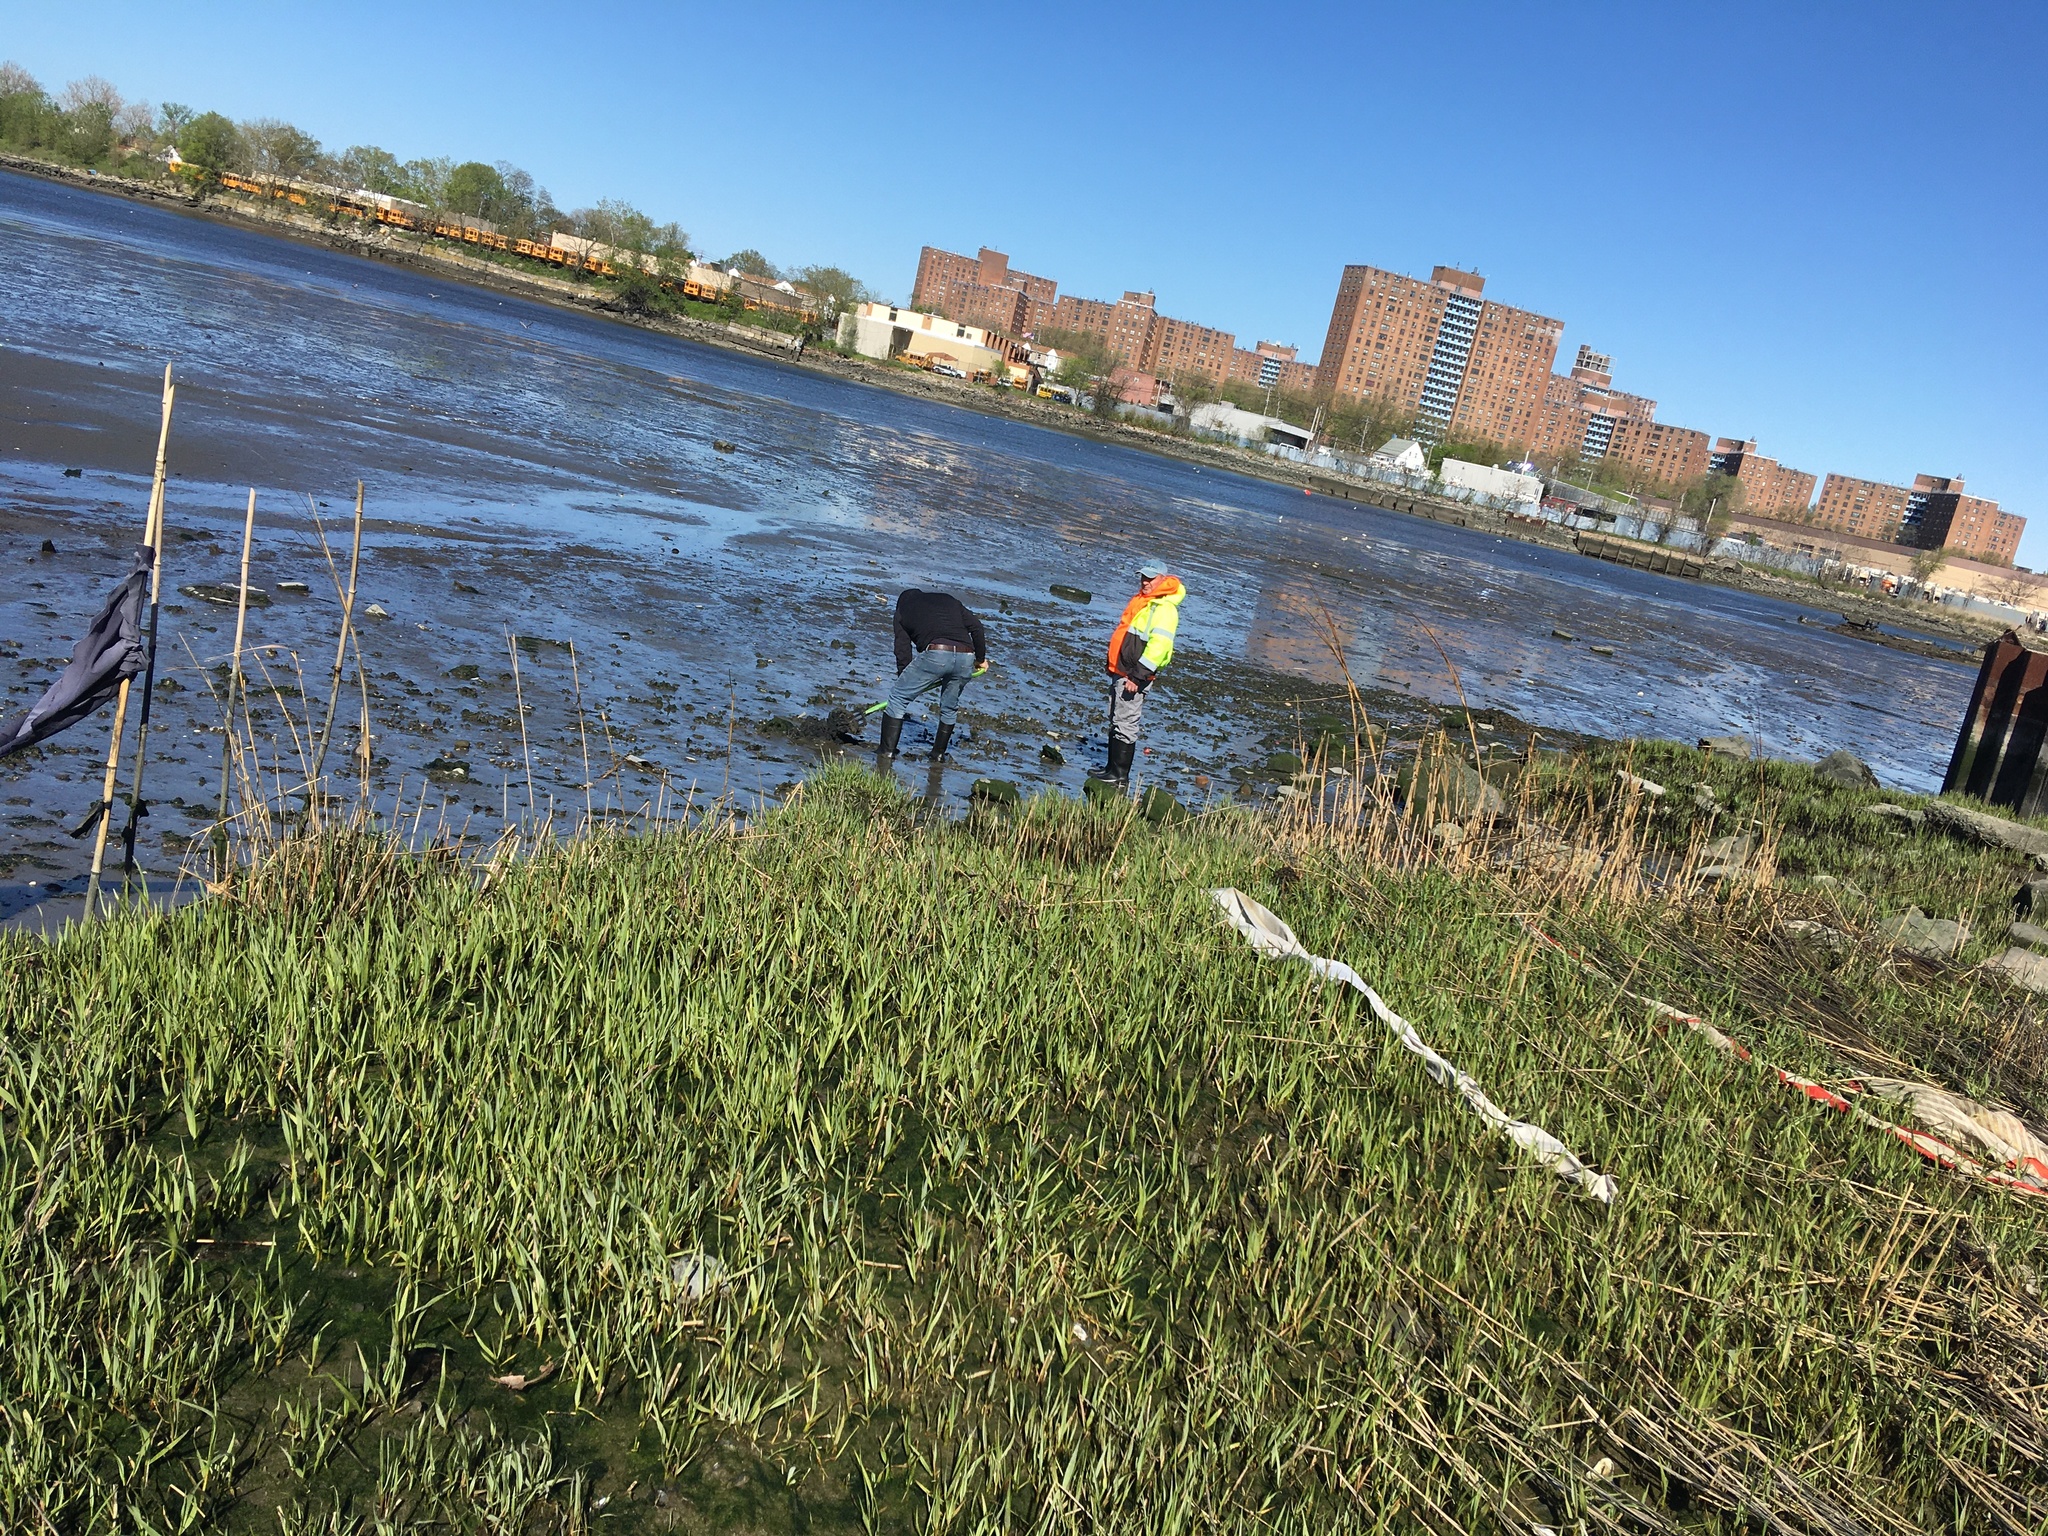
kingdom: Plantae
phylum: Tracheophyta
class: Liliopsida
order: Poales
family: Poaceae
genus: Sporobolus
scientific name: Sporobolus alterniflorus
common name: Atlantic cordgrass
